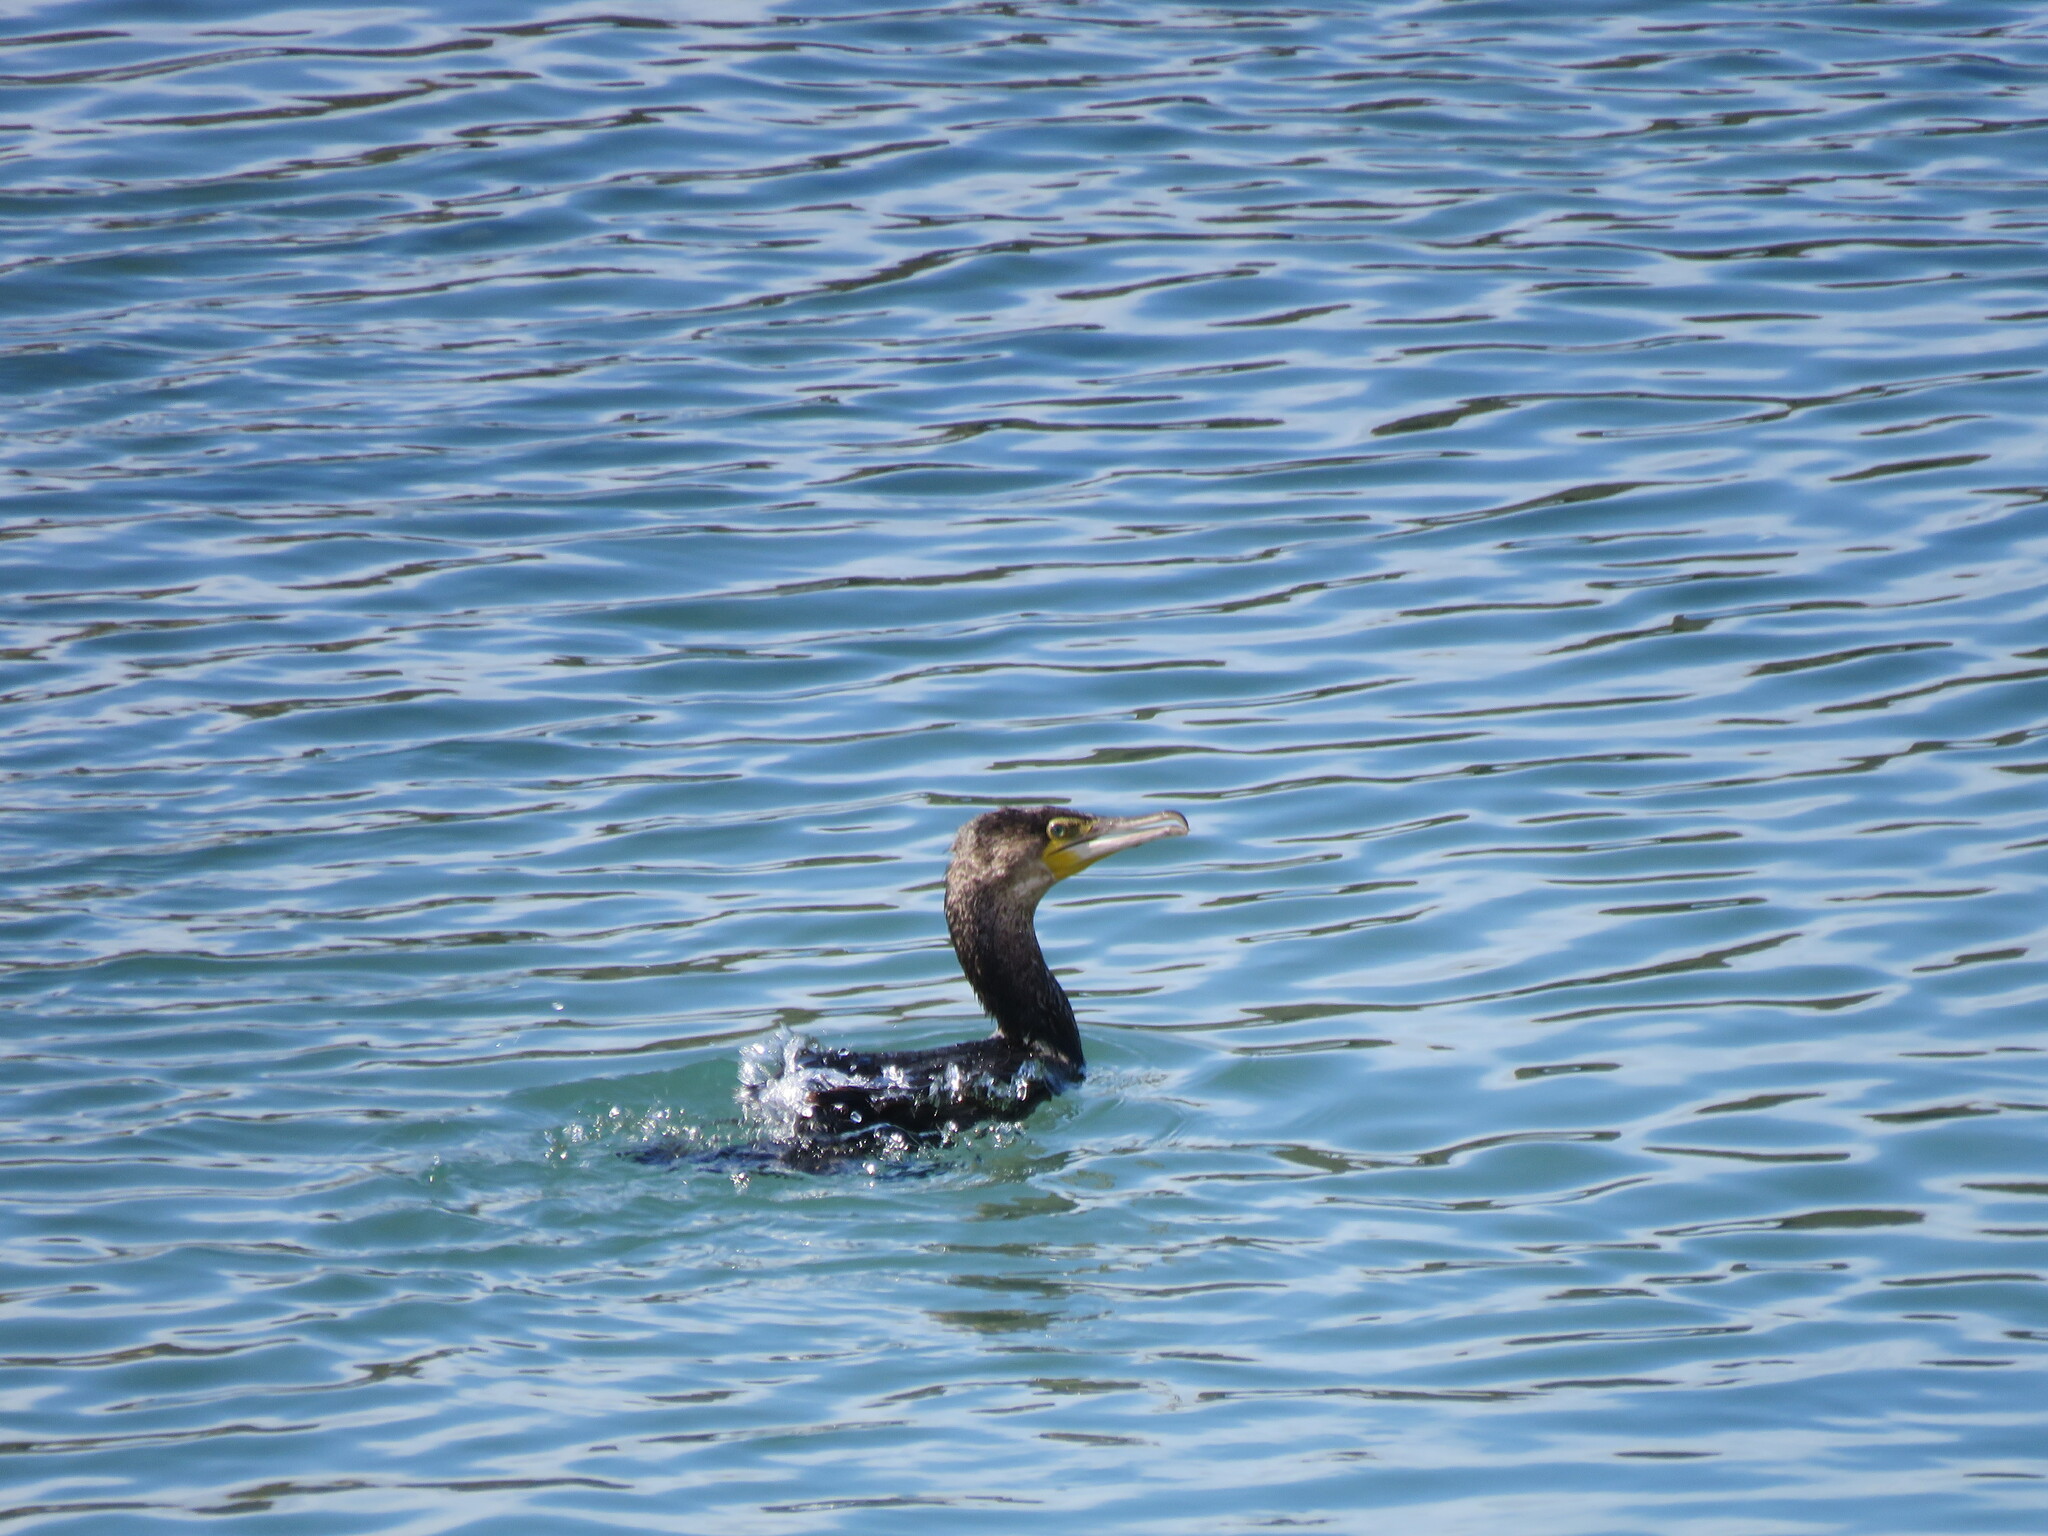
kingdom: Animalia
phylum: Chordata
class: Aves
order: Suliformes
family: Phalacrocoracidae
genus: Phalacrocorax
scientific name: Phalacrocorax carbo
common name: Great cormorant
